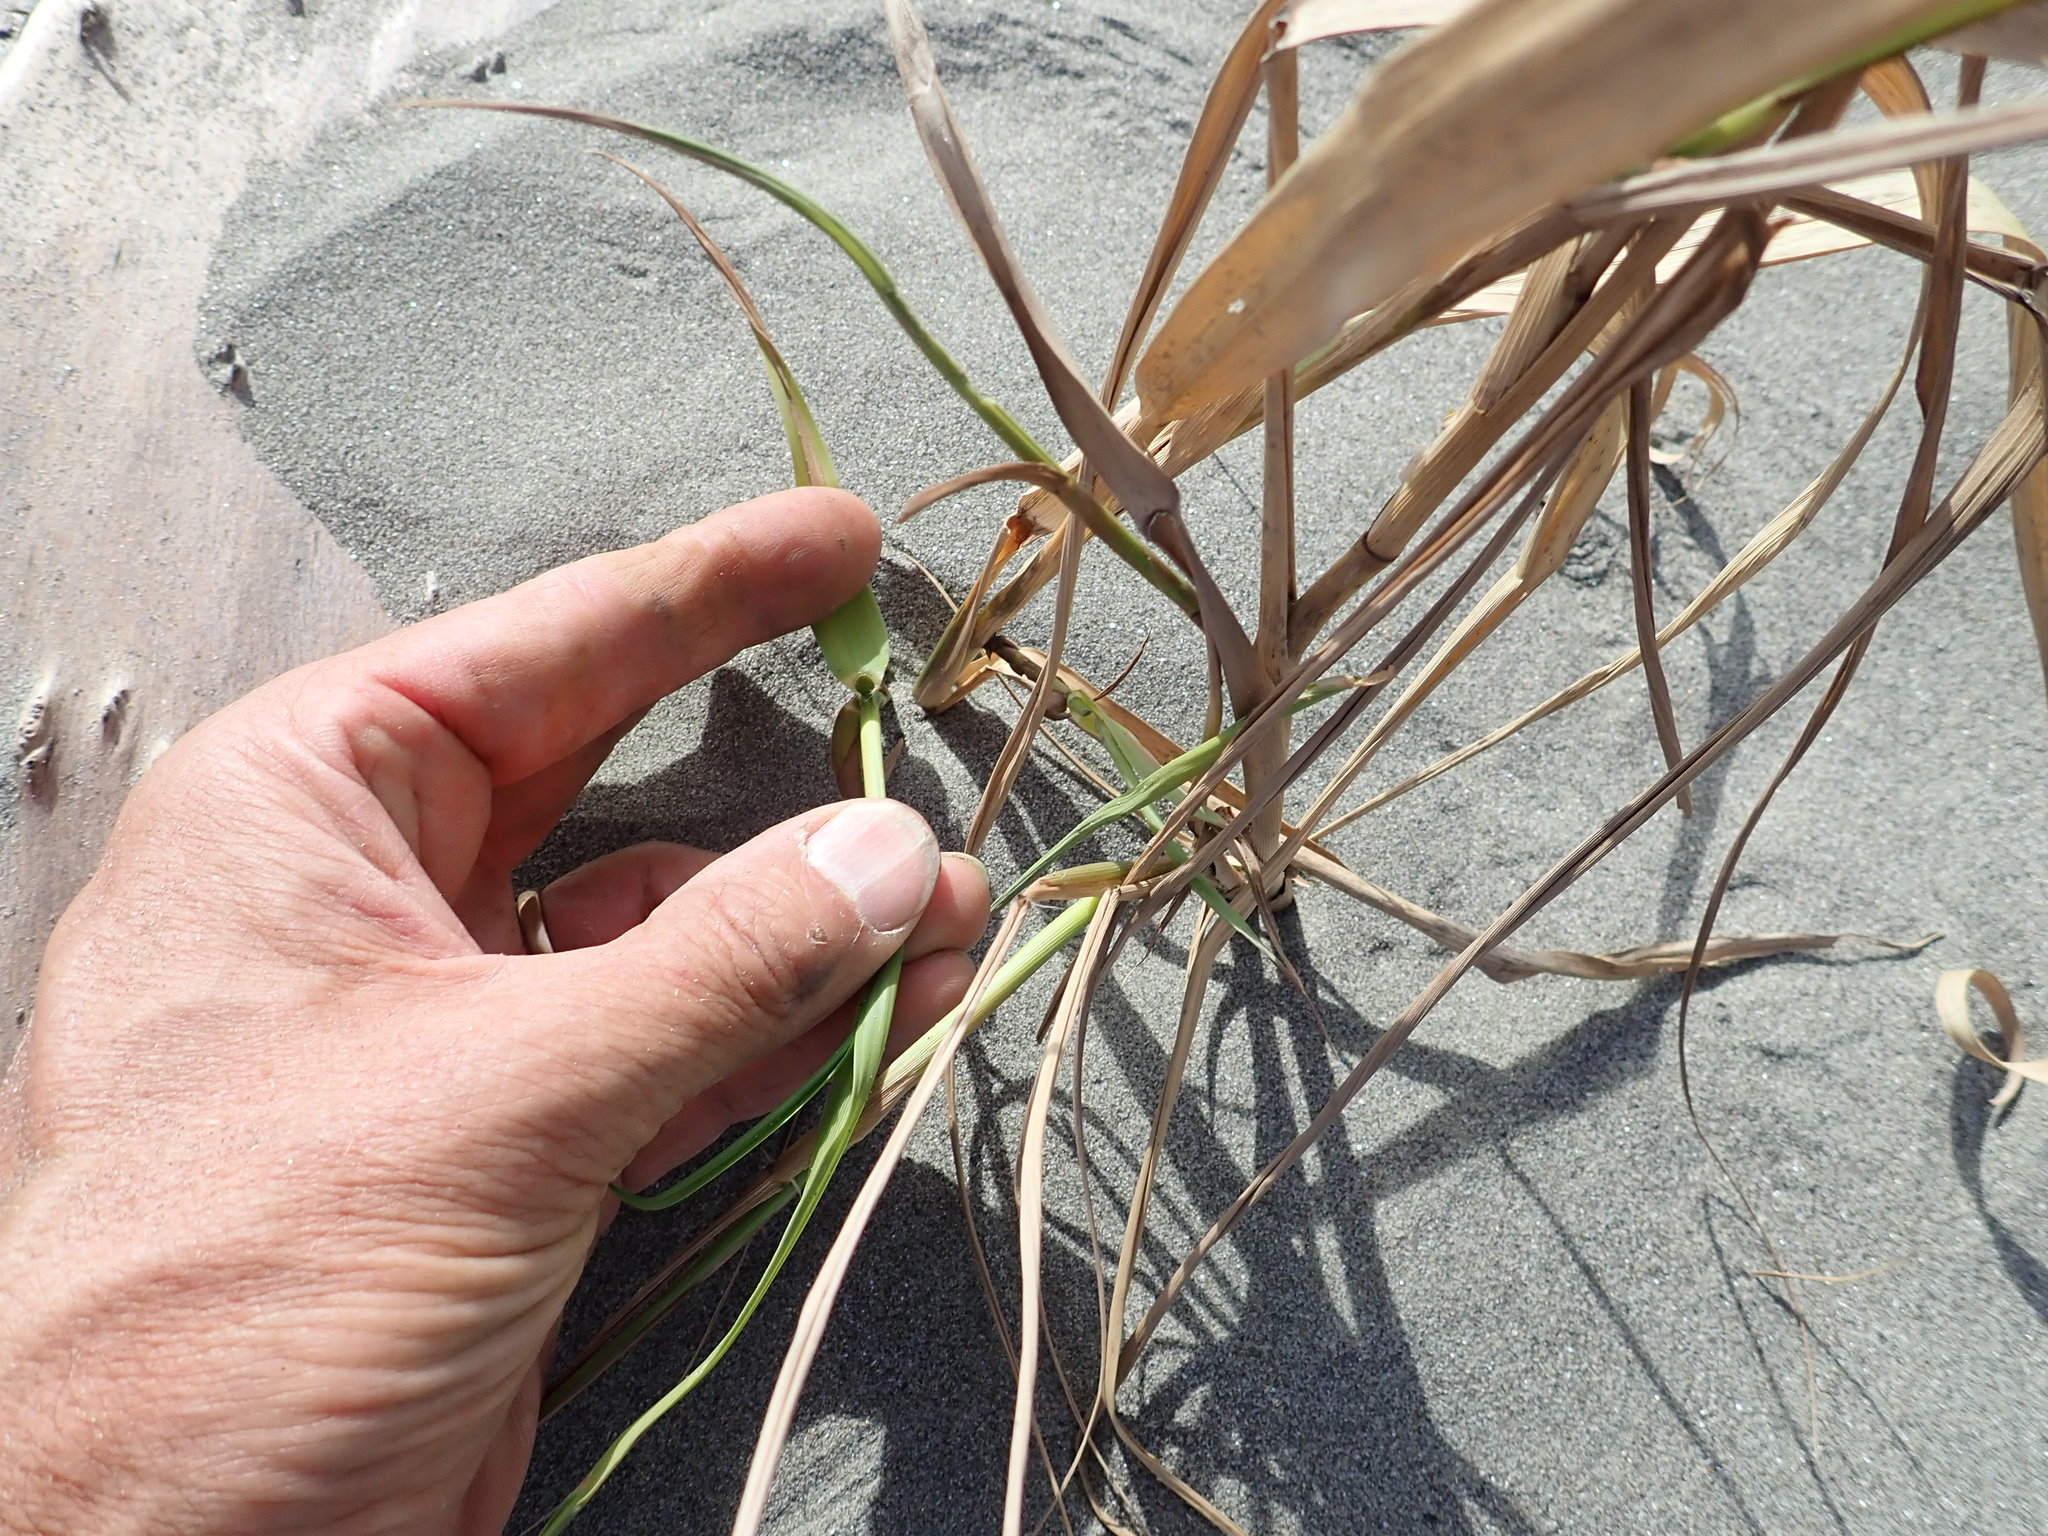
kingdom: Plantae
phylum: Tracheophyta
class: Liliopsida
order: Poales
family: Poaceae
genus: Phragmites
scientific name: Phragmites karka
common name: Tropical reed
